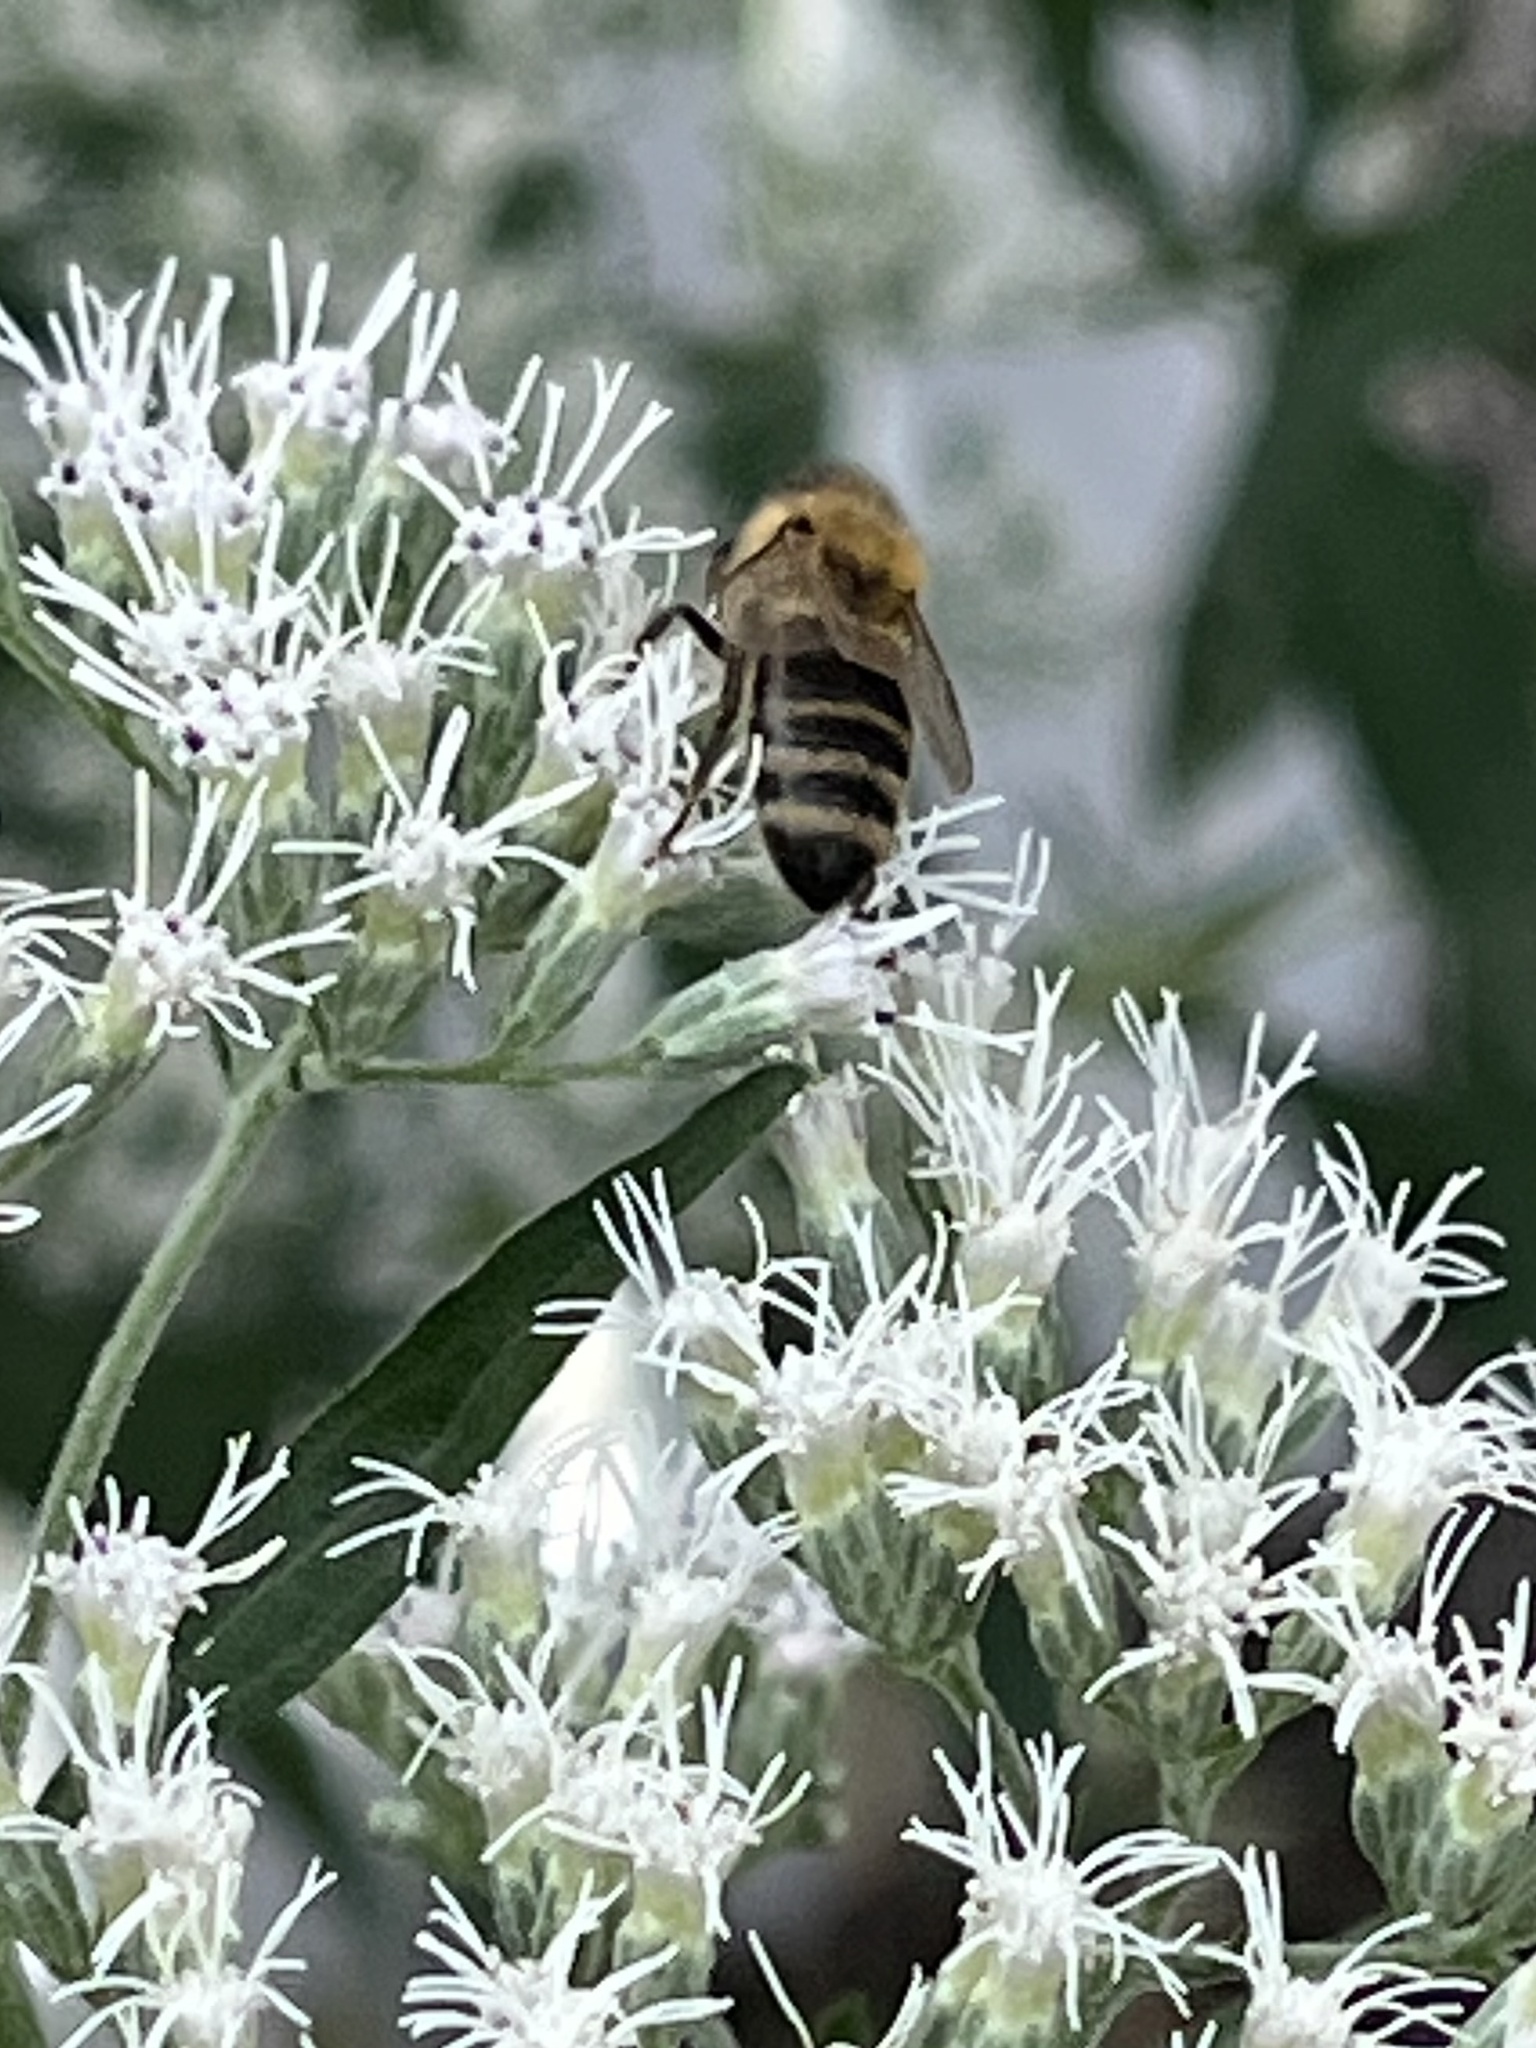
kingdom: Animalia
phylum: Arthropoda
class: Insecta
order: Hymenoptera
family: Apidae
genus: Apis
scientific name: Apis mellifera
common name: Honey bee
